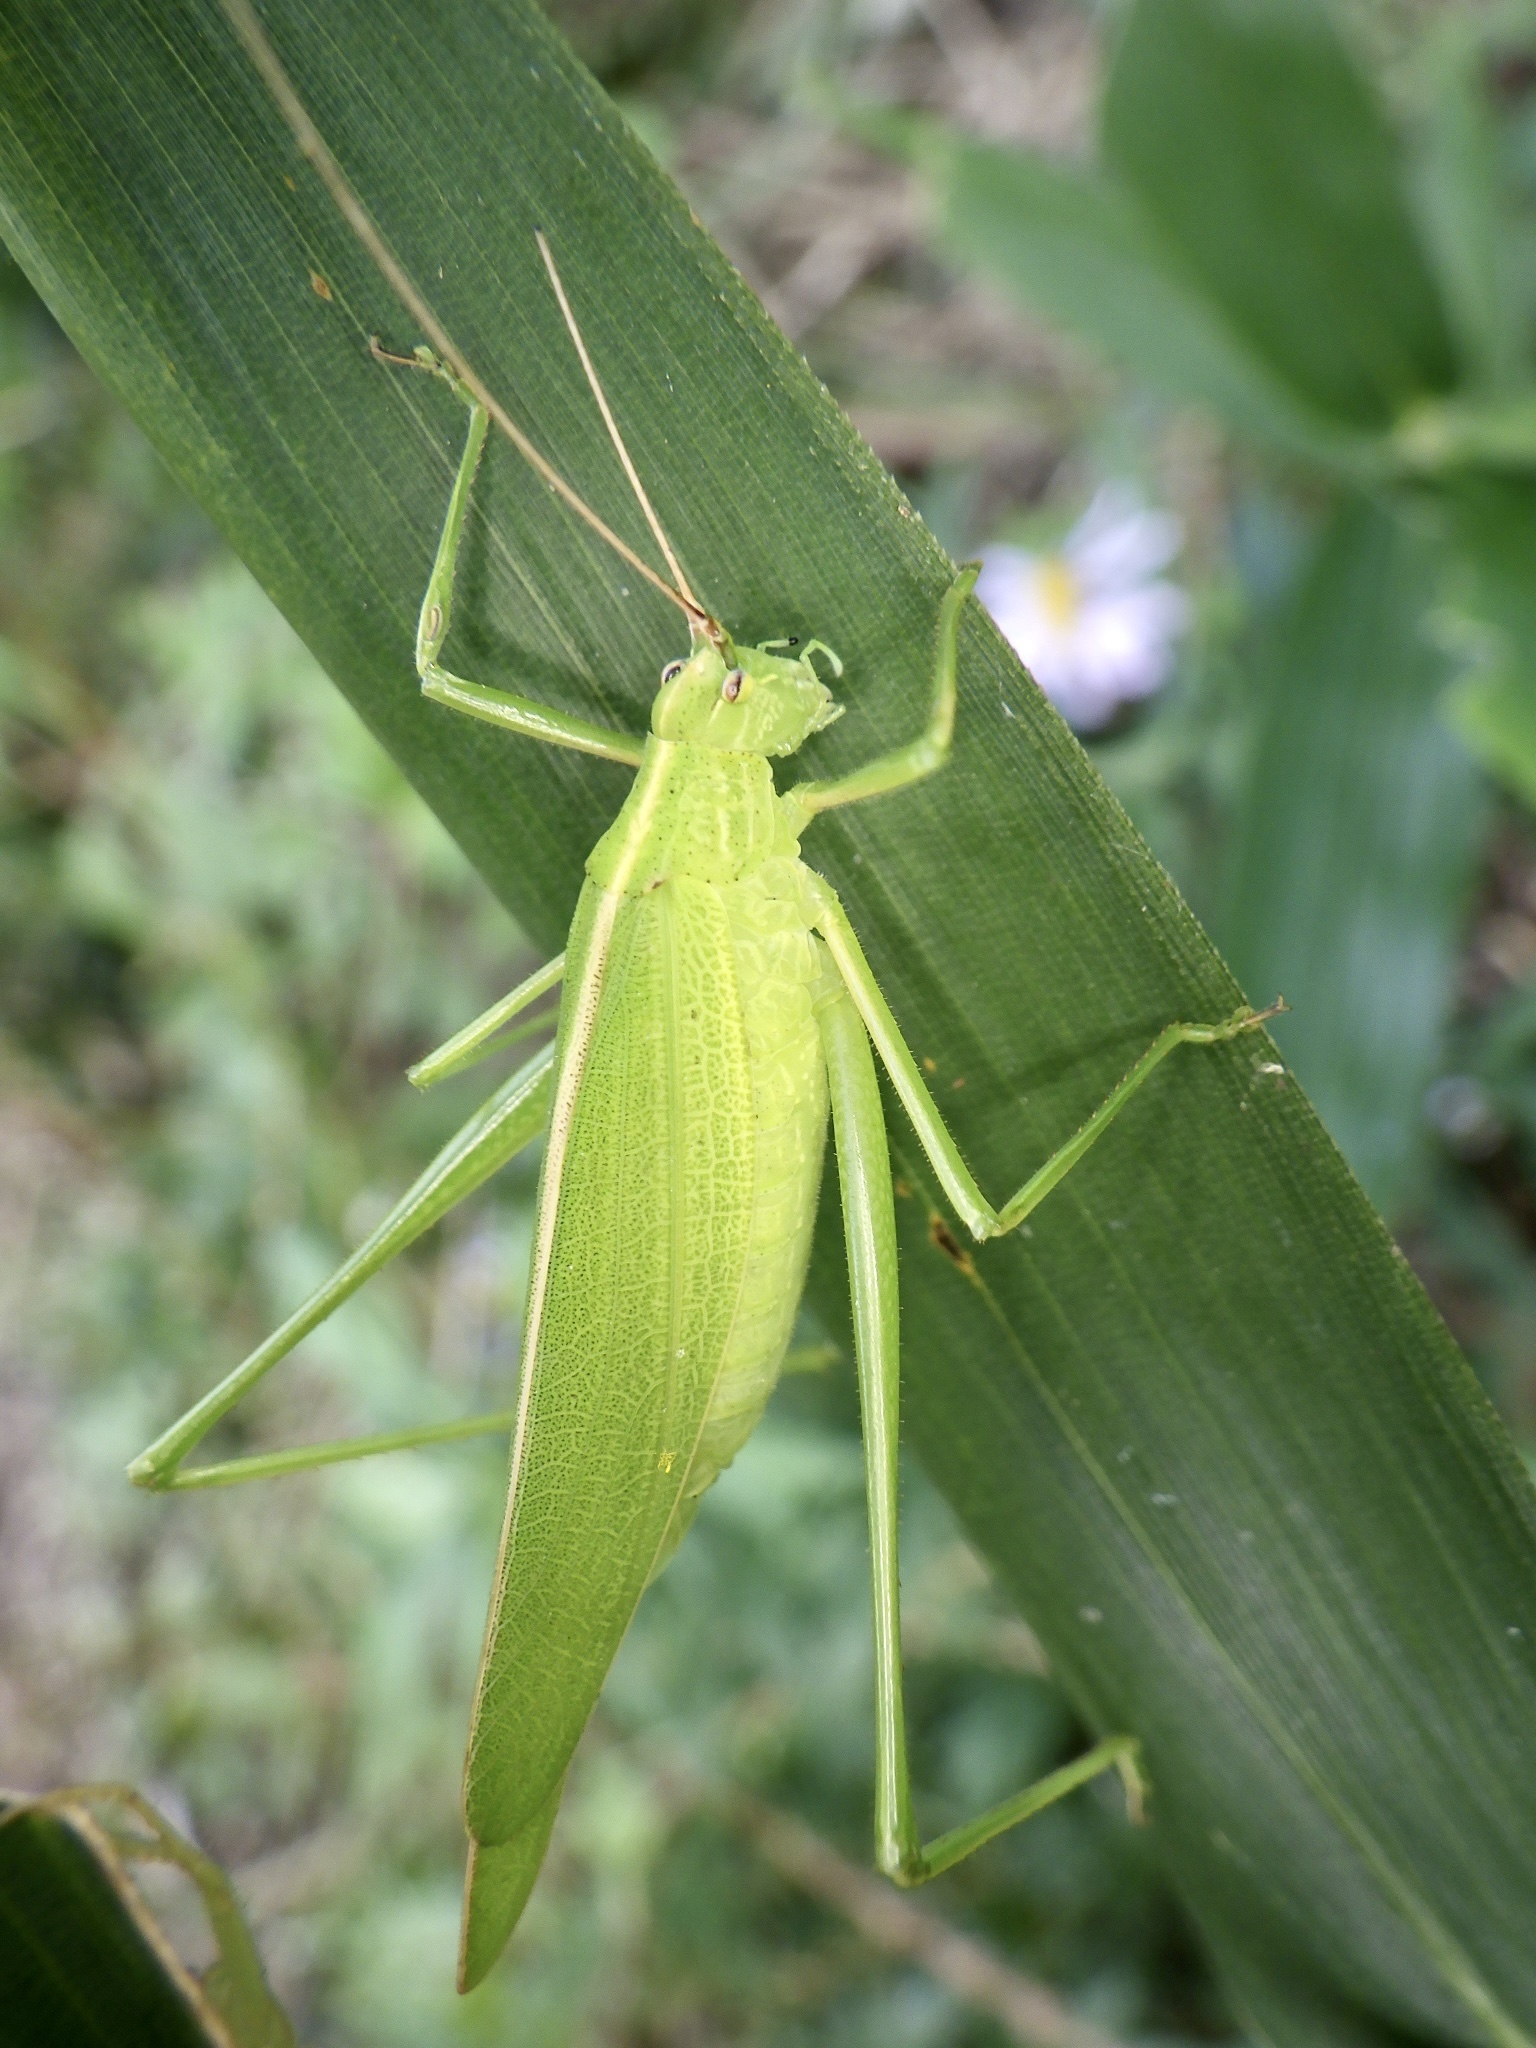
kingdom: Animalia
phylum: Arthropoda
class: Insecta
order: Orthoptera
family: Tettigoniidae
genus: Ducetia
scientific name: Ducetia japonica
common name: Pacific ducetia
